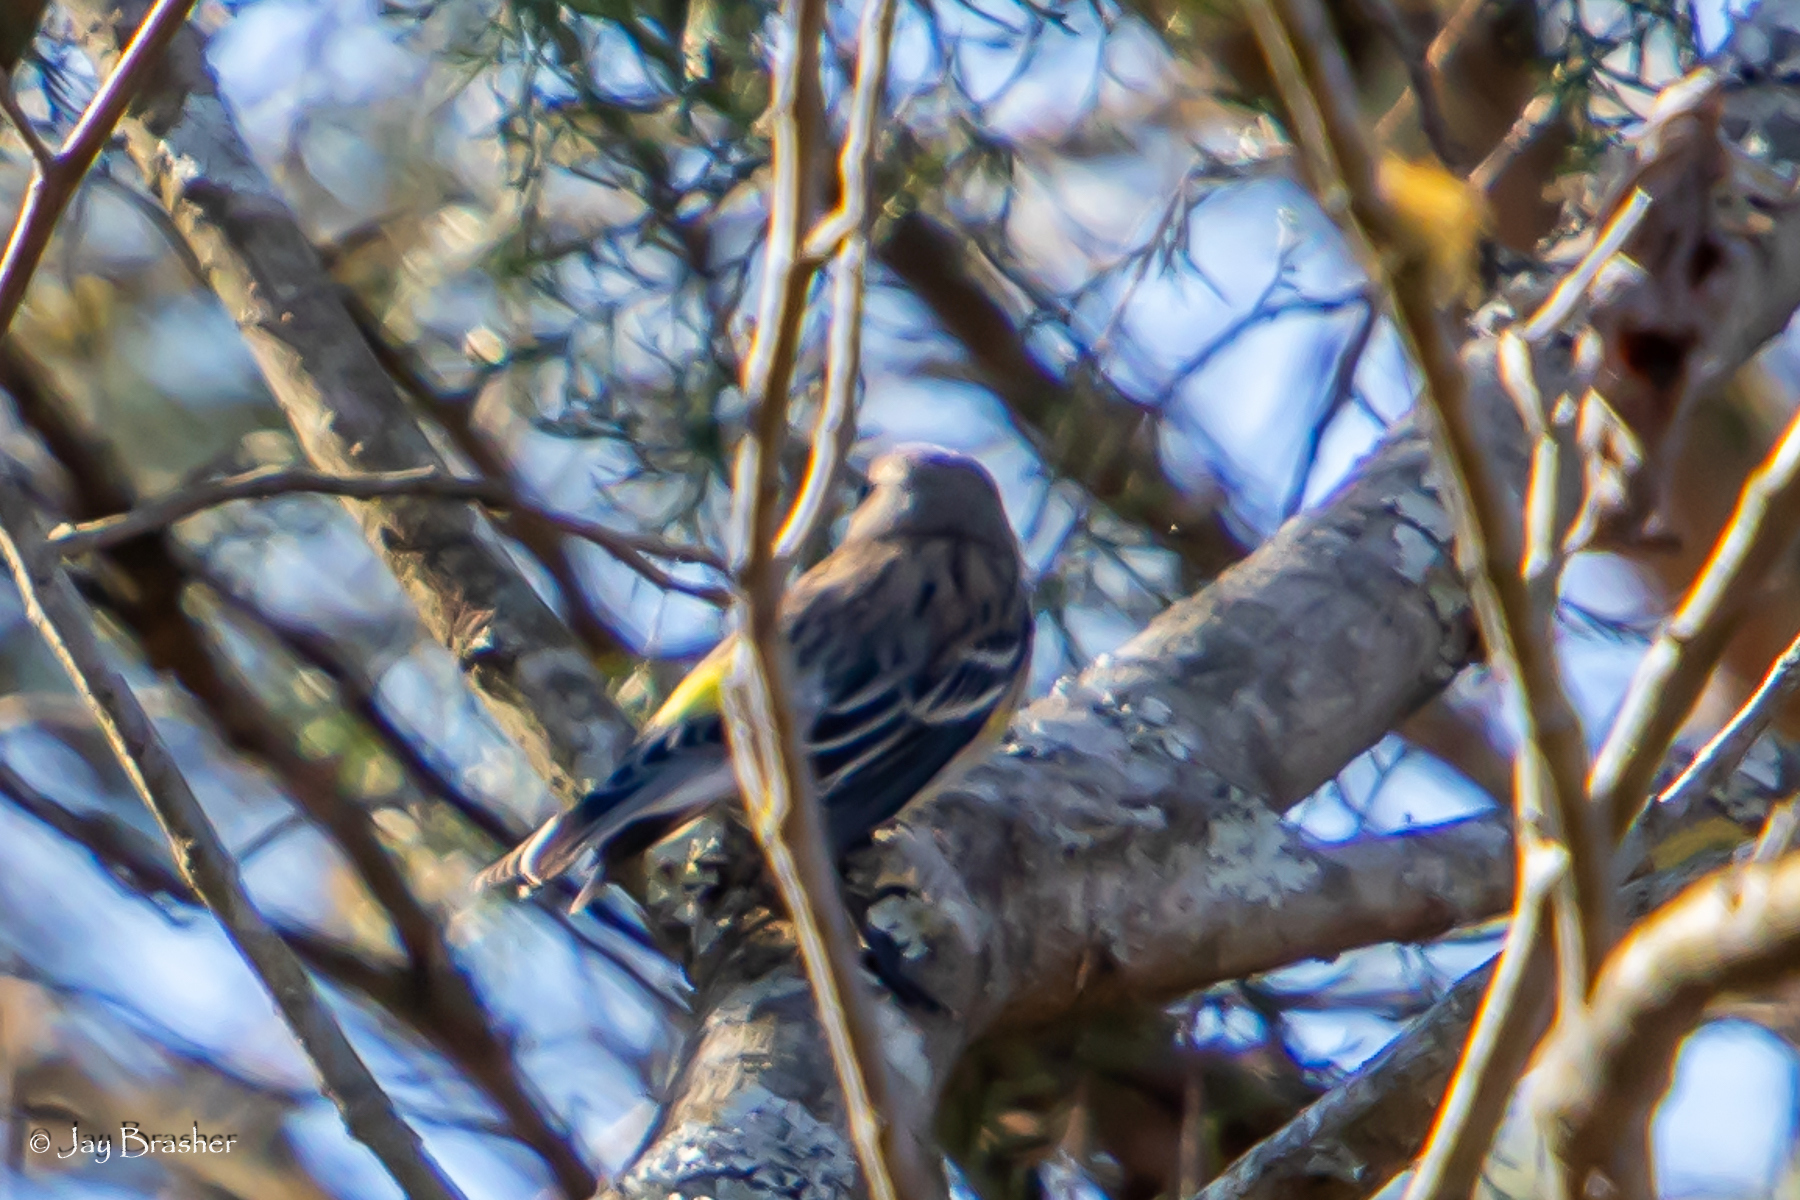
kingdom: Animalia
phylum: Chordata
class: Aves
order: Passeriformes
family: Parulidae
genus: Setophaga
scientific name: Setophaga coronata
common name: Myrtle warbler
